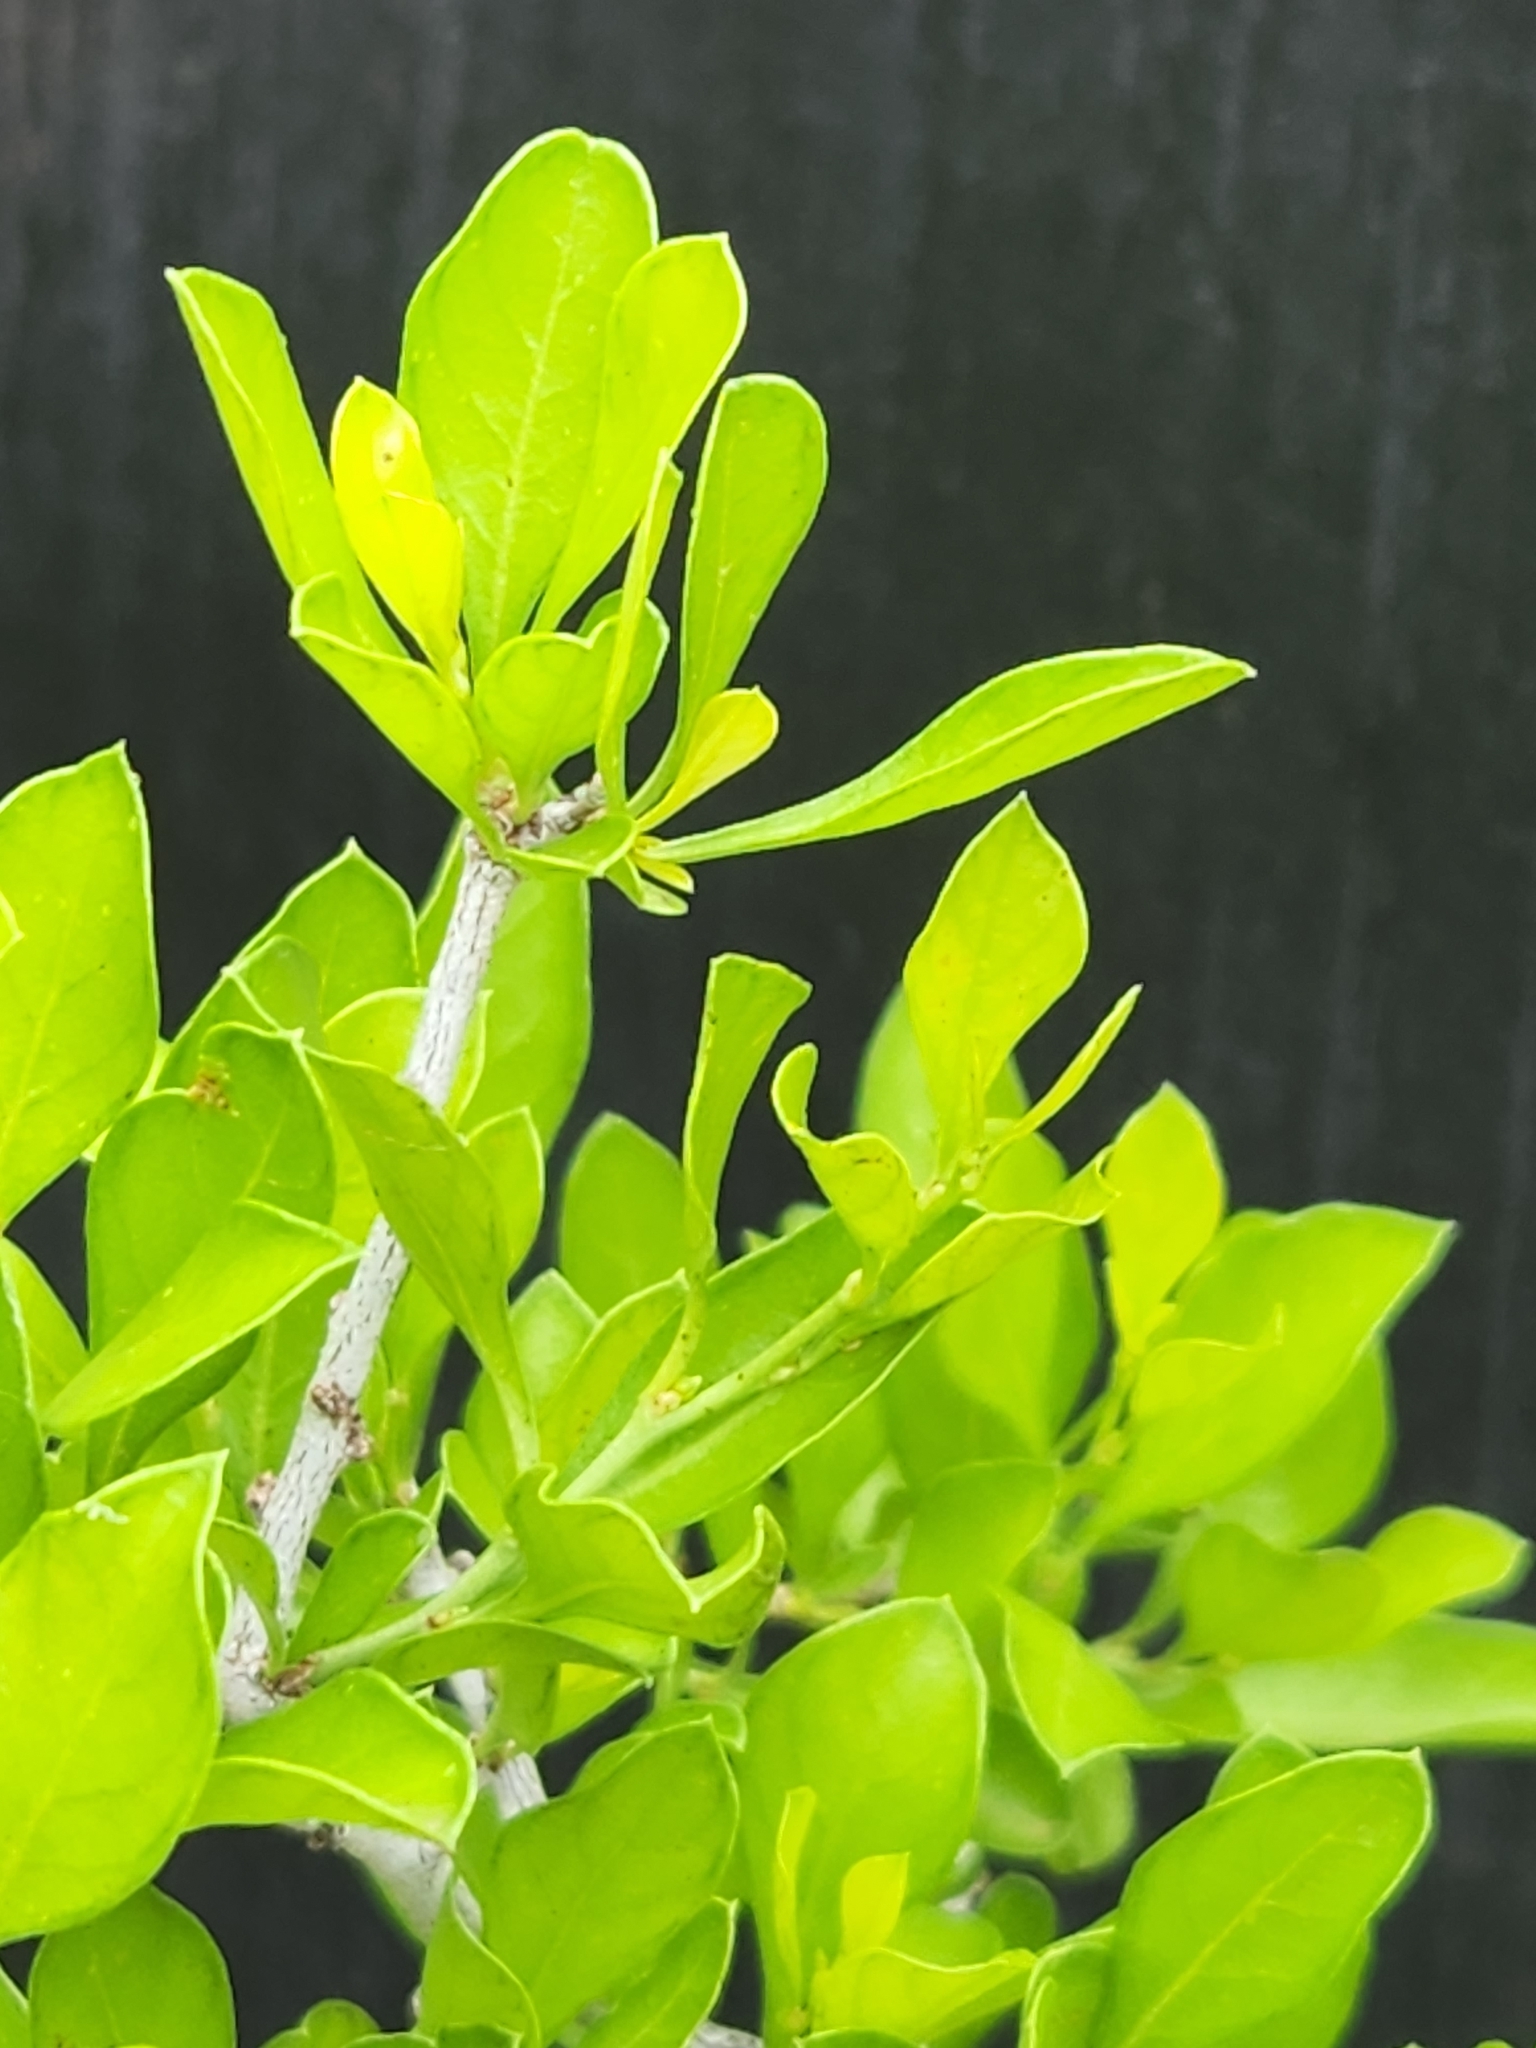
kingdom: Plantae
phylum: Tracheophyta
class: Magnoliopsida
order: Rosales
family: Rhamnaceae
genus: Condalia
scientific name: Condalia hookeri
